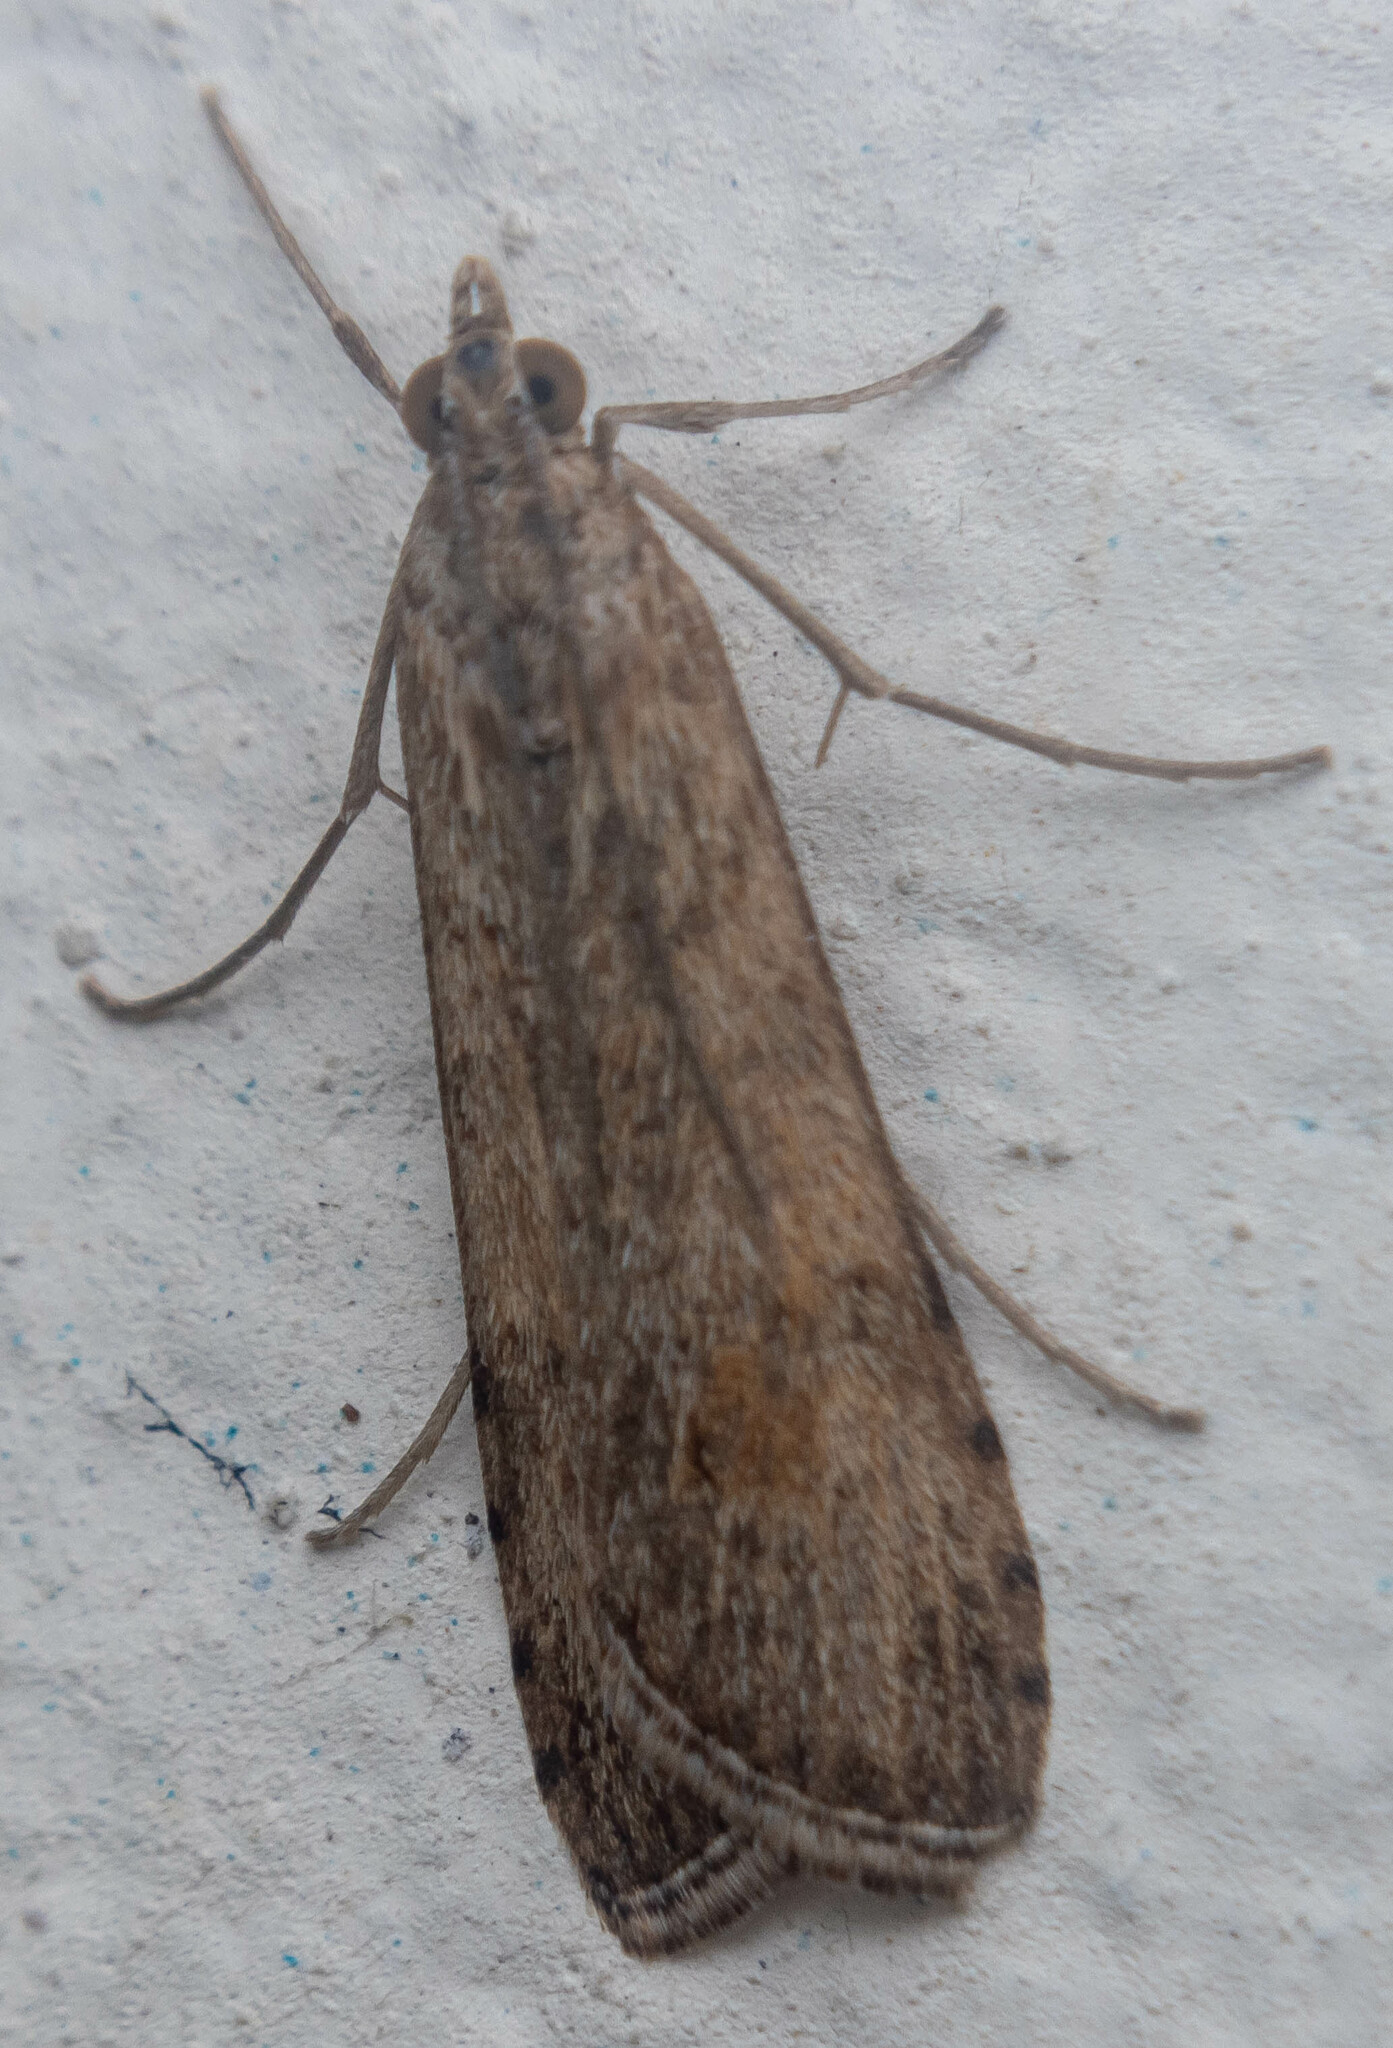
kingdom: Animalia
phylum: Arthropoda
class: Insecta
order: Lepidoptera
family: Crambidae
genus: Nomophila
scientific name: Nomophila noctuella
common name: Rush veneer
